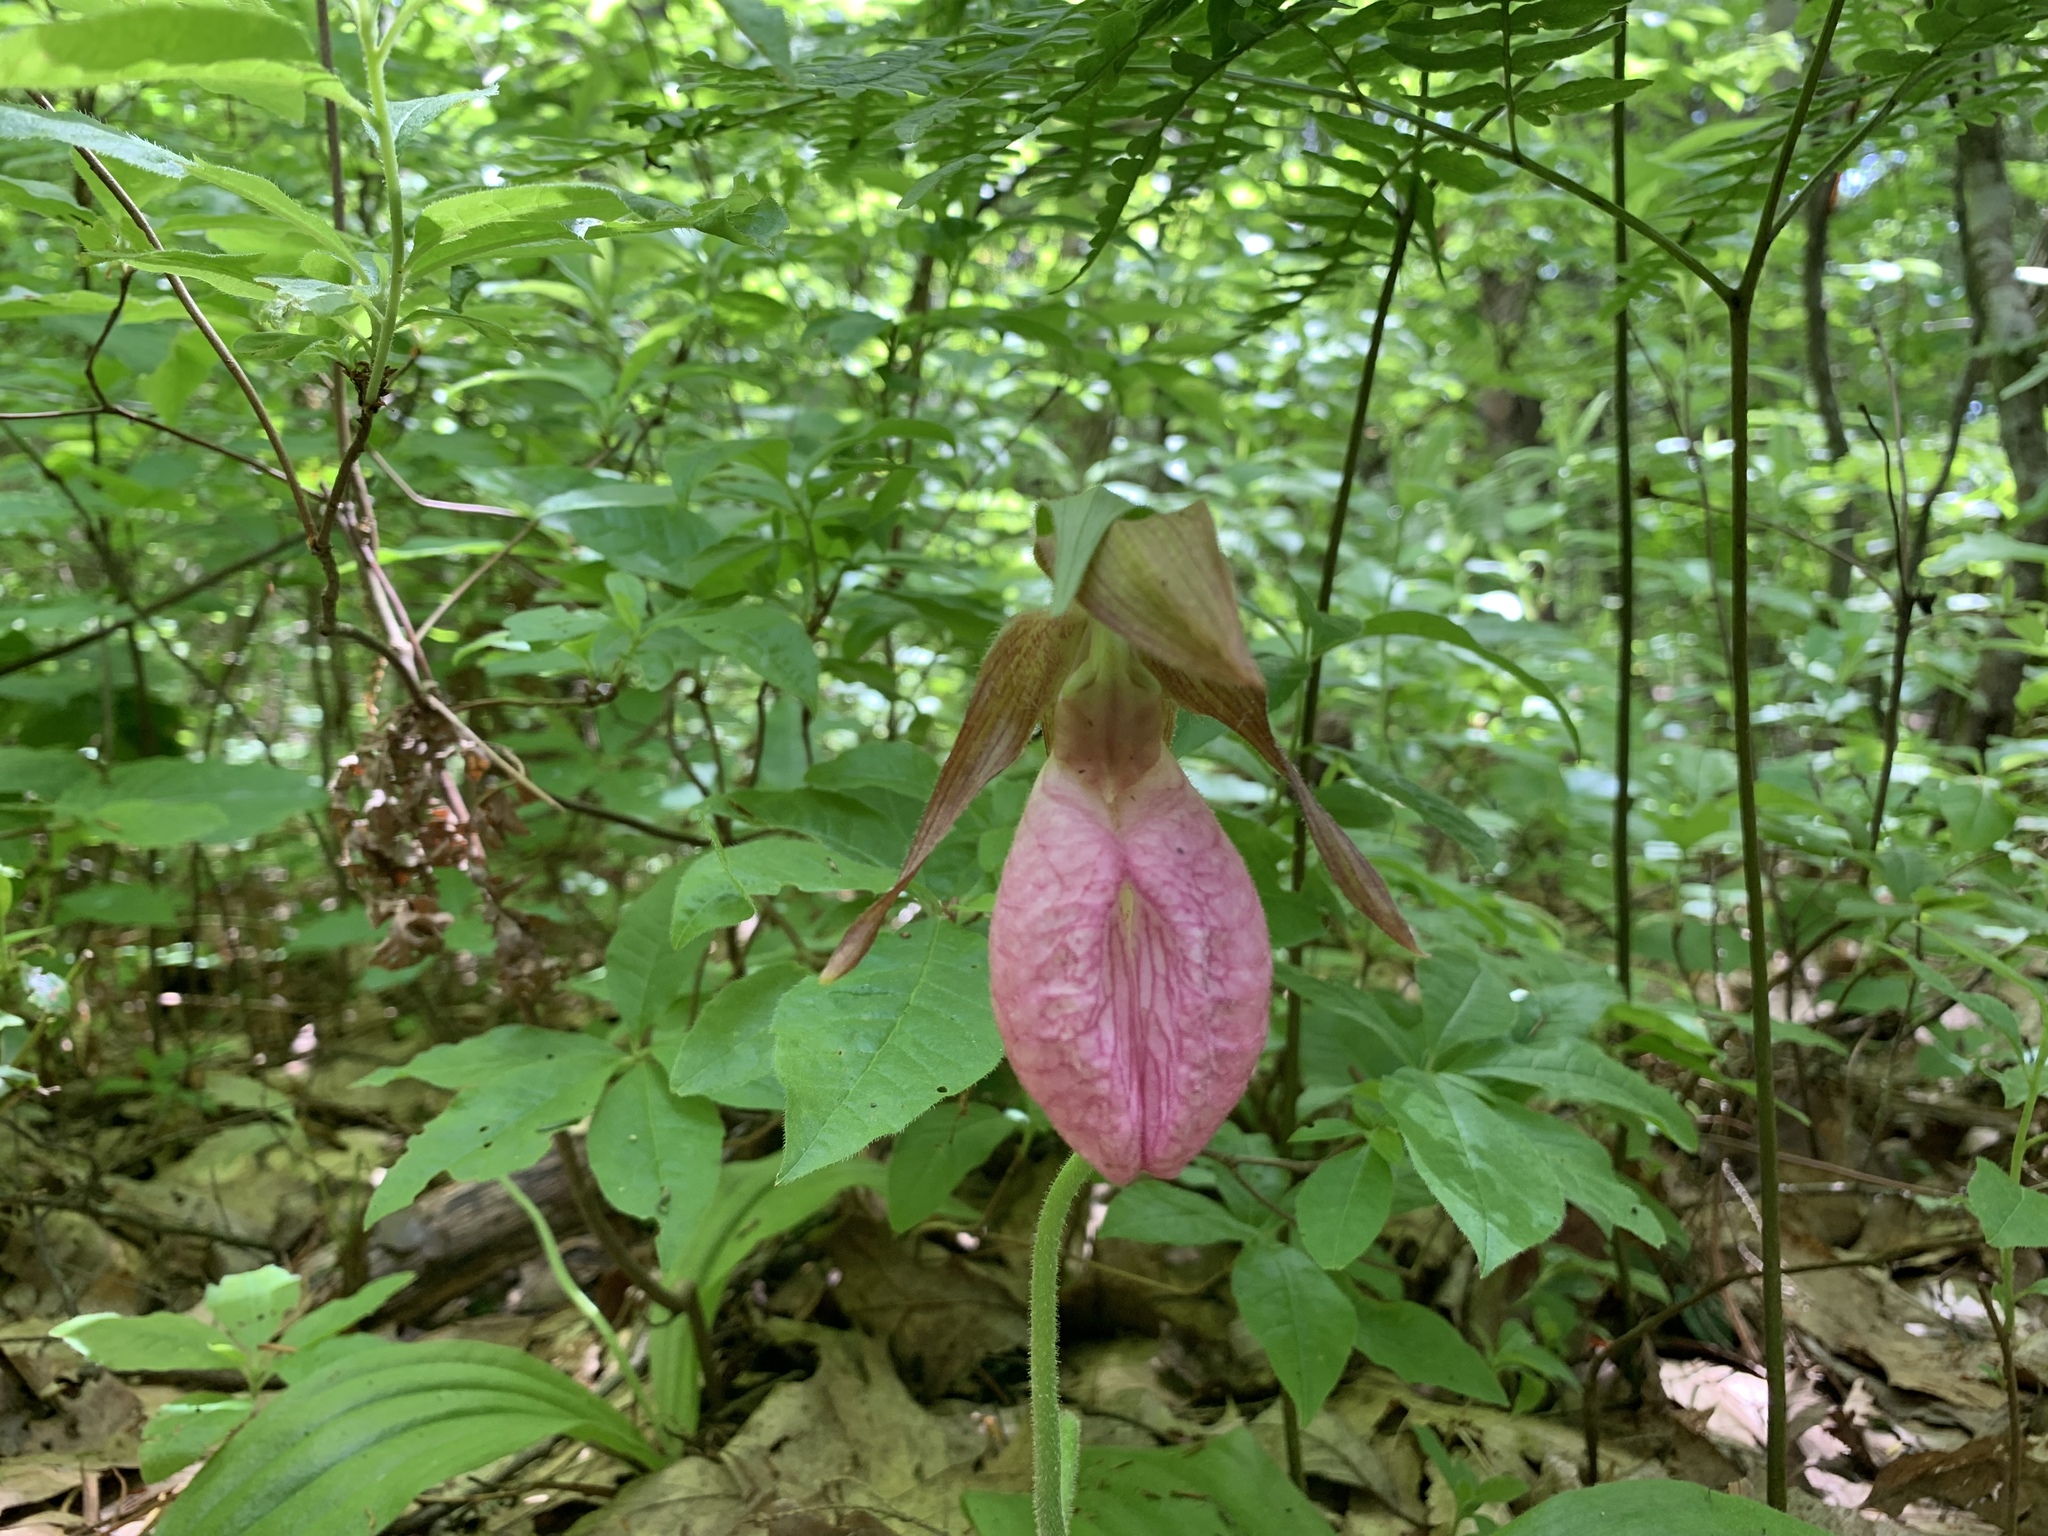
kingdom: Plantae
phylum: Tracheophyta
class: Liliopsida
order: Asparagales
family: Orchidaceae
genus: Cypripedium
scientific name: Cypripedium acaule
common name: Pink lady's-slipper
